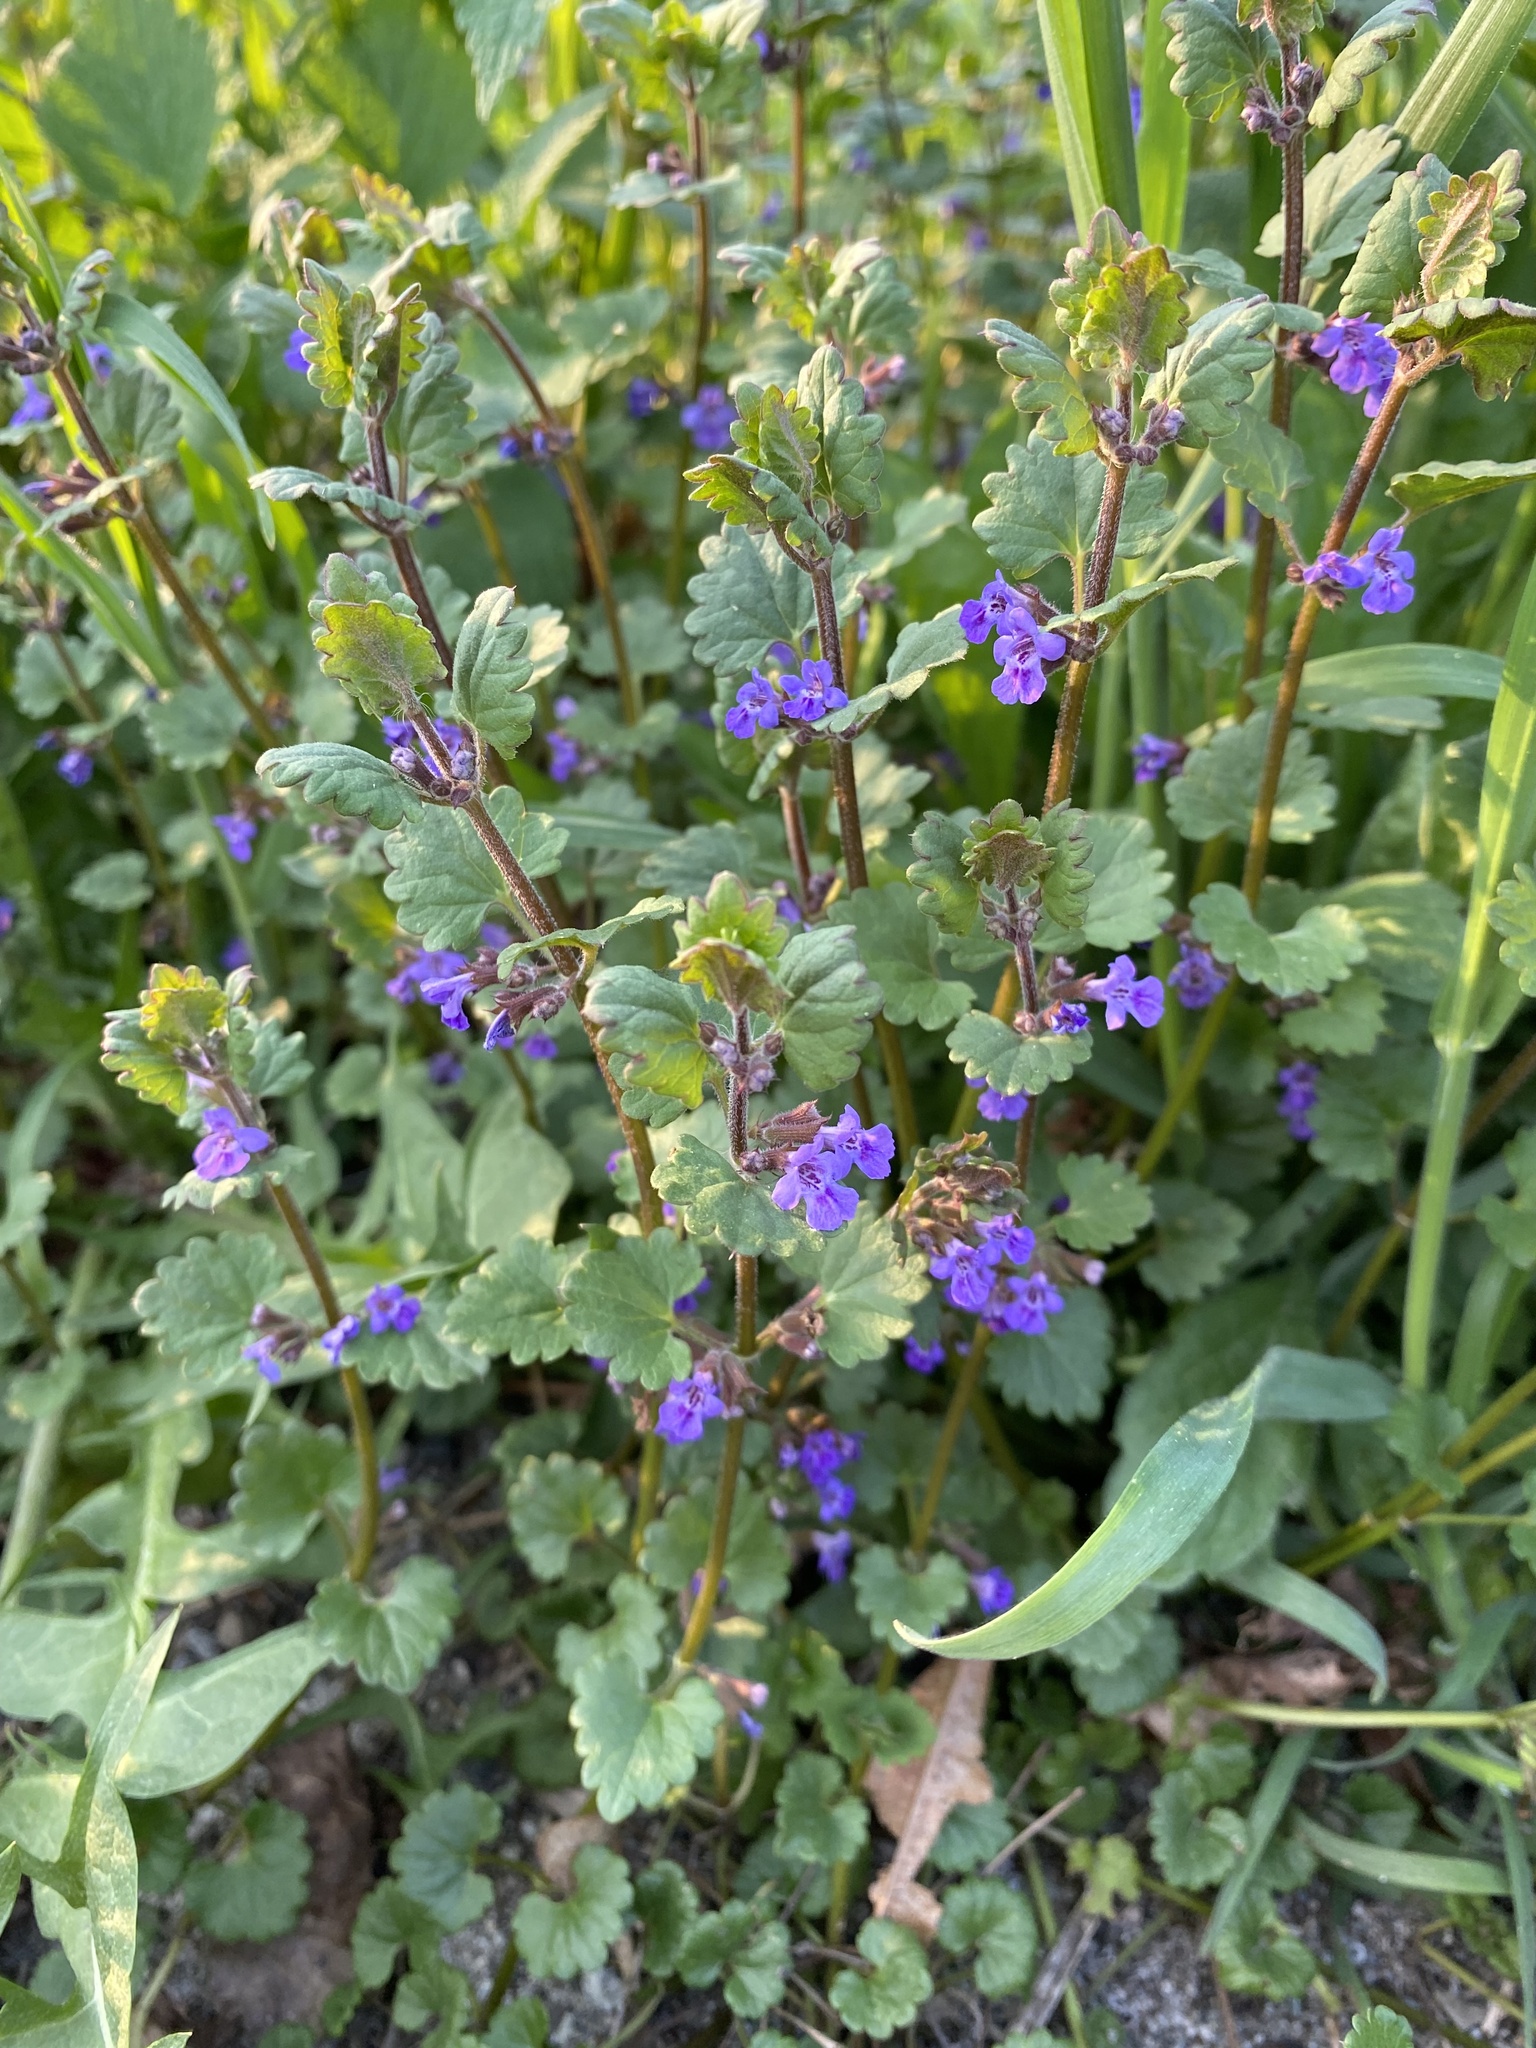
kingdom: Plantae
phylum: Tracheophyta
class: Magnoliopsida
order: Lamiales
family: Lamiaceae
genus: Glechoma
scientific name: Glechoma hederacea
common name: Ground ivy
